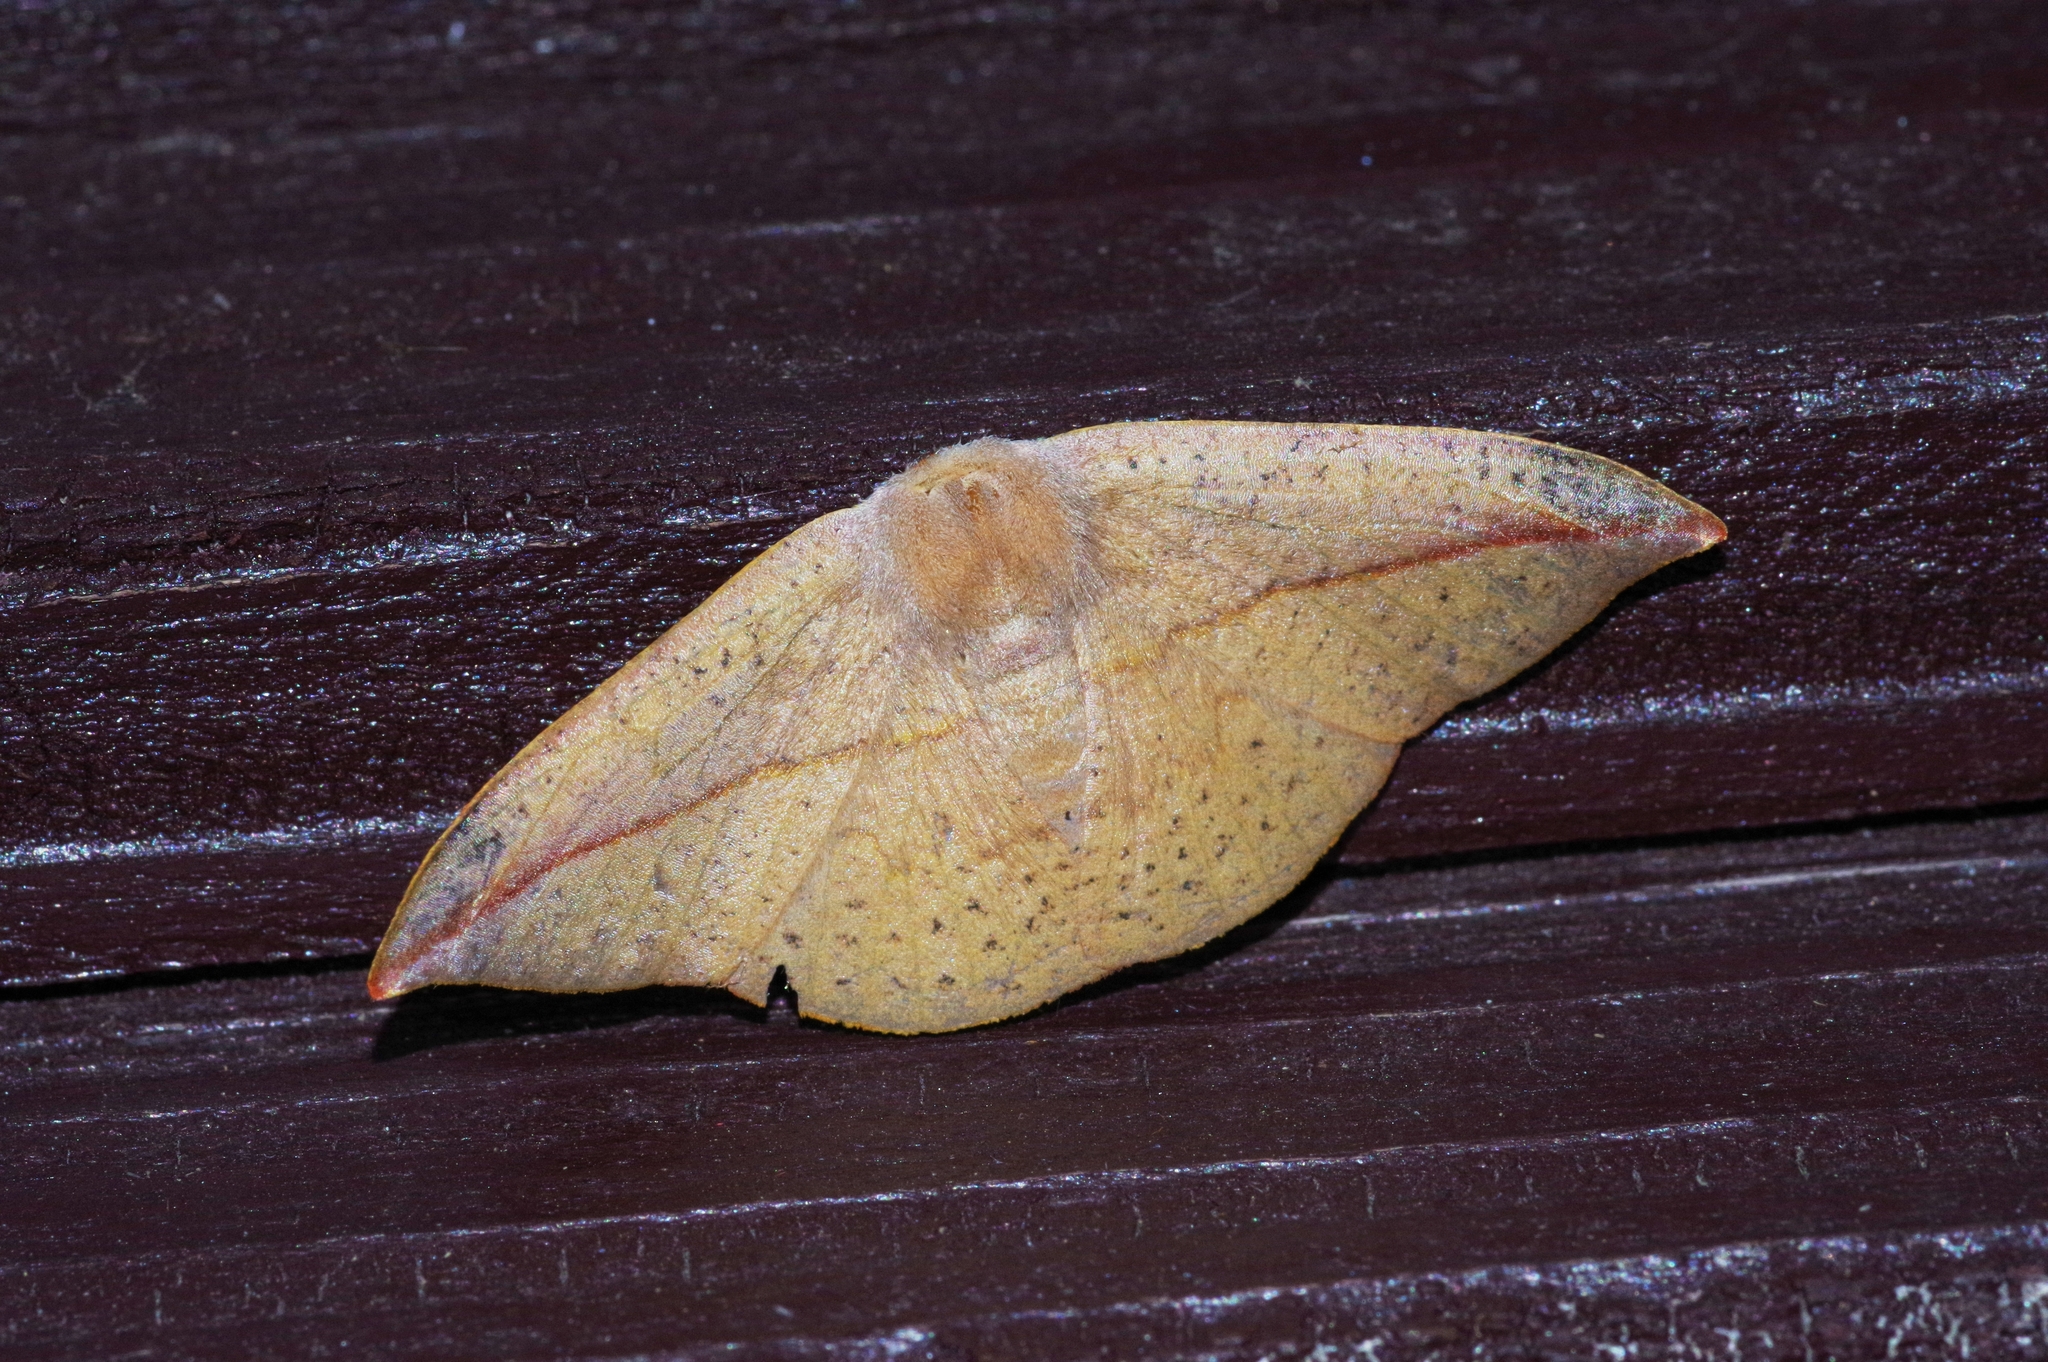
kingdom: Animalia
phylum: Arthropoda
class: Insecta
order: Lepidoptera
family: Drepanidae
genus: Oreta
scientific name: Oreta insignis
